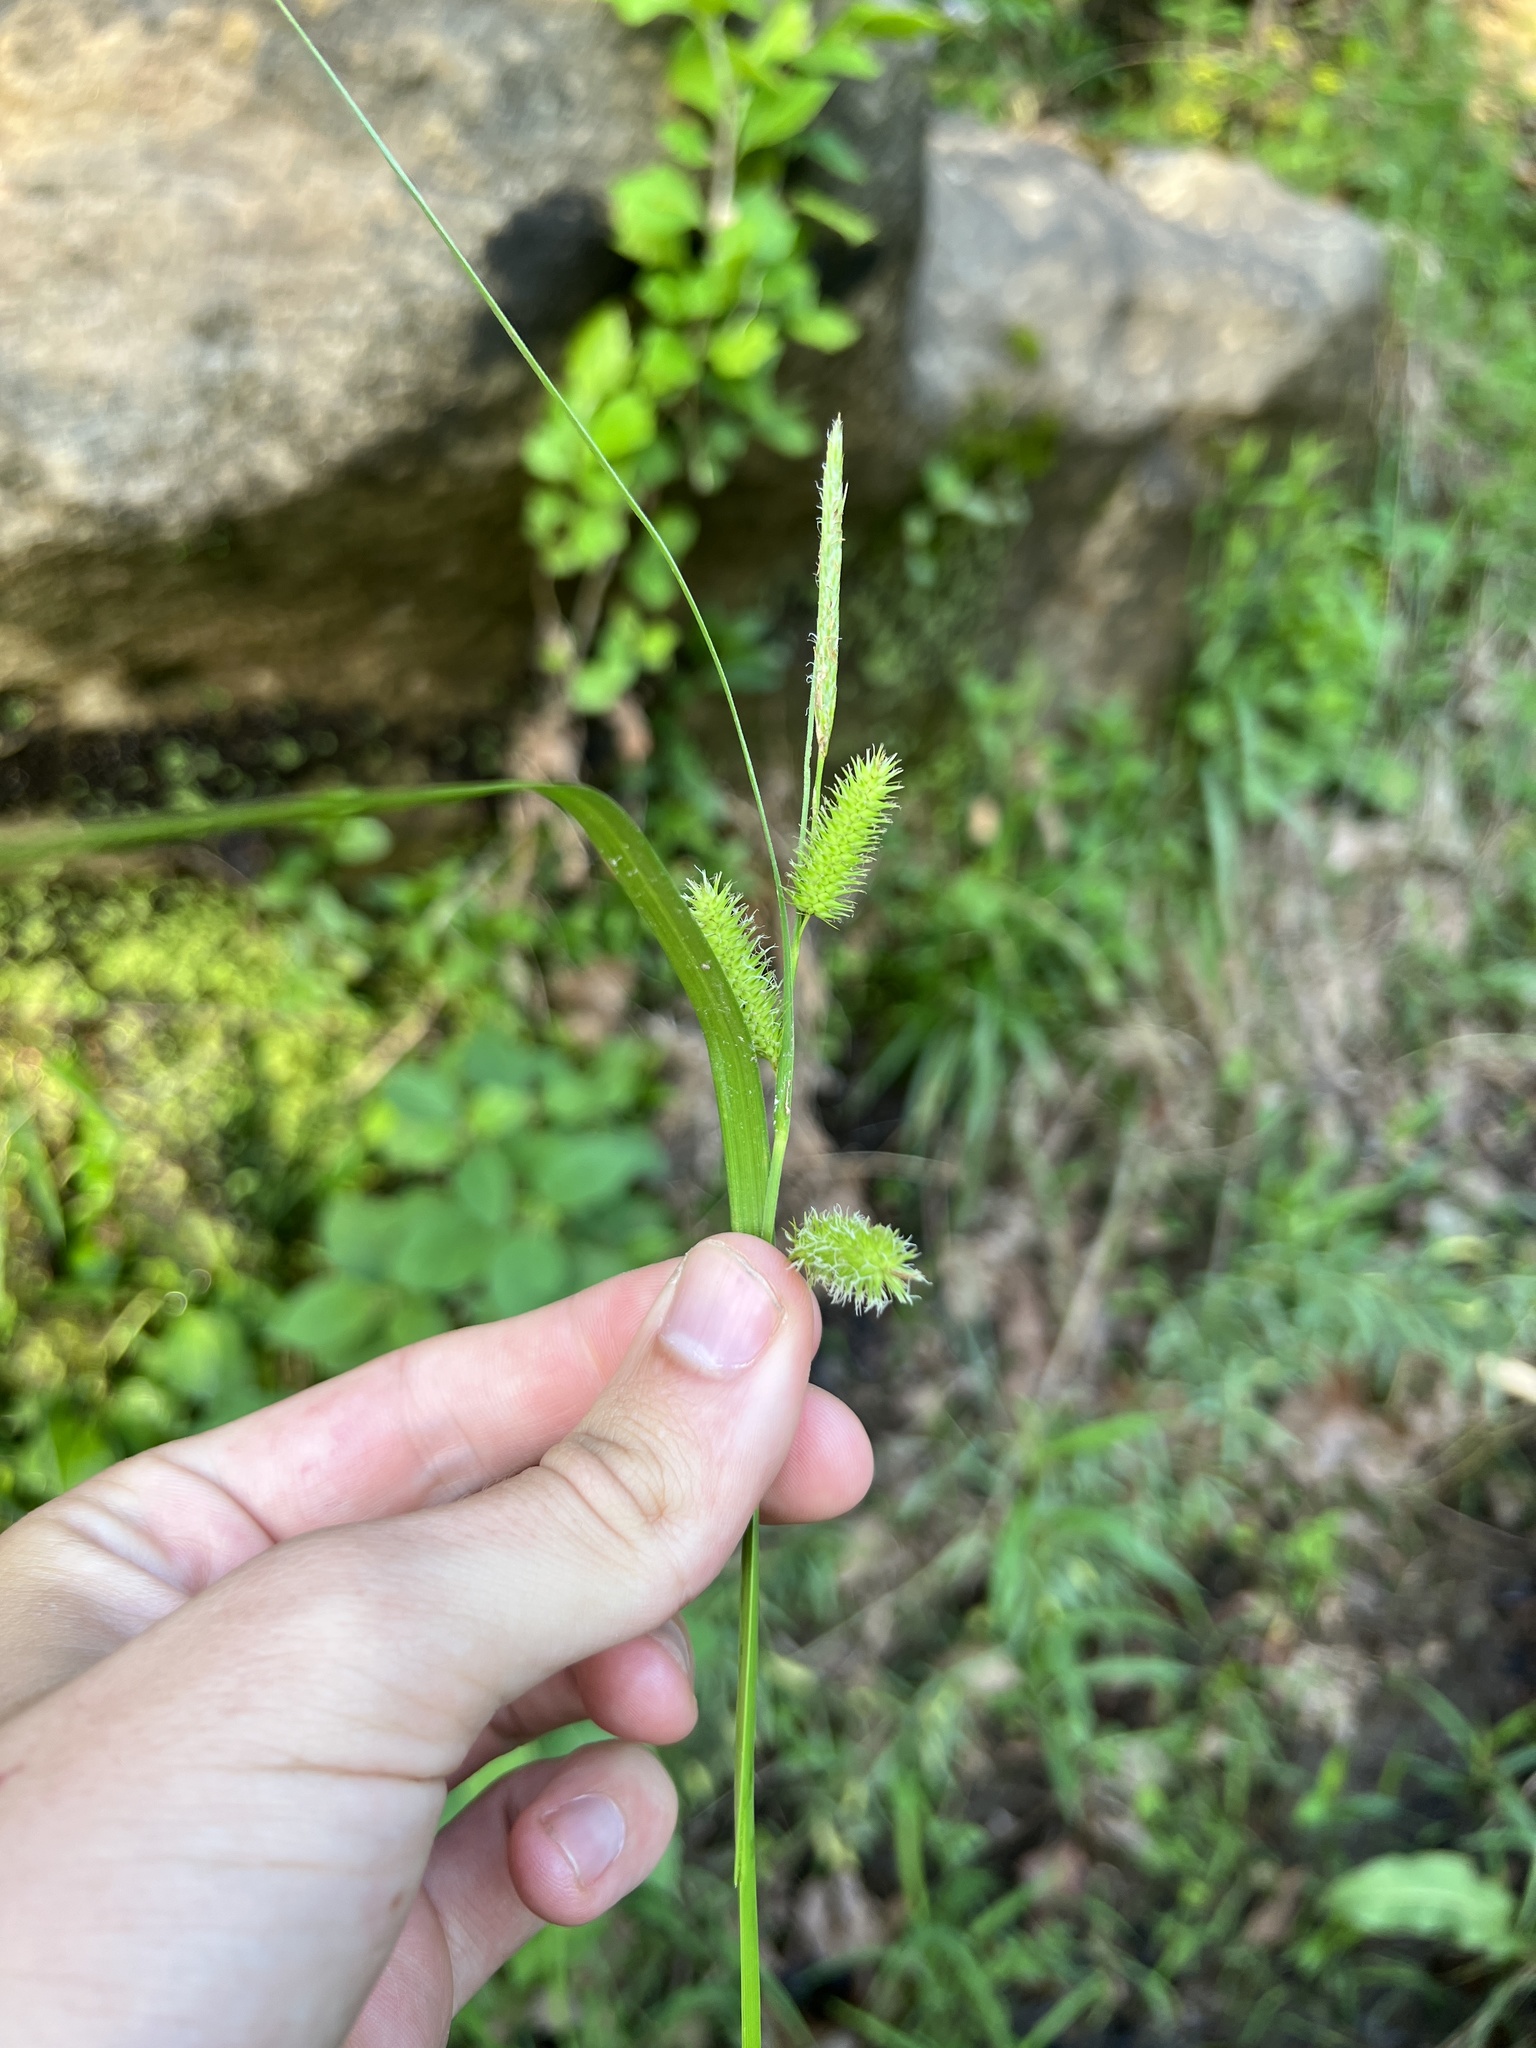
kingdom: Plantae
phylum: Tracheophyta
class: Liliopsida
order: Poales
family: Cyperaceae
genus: Carex
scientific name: Carex lurida
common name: Sallow sedge
